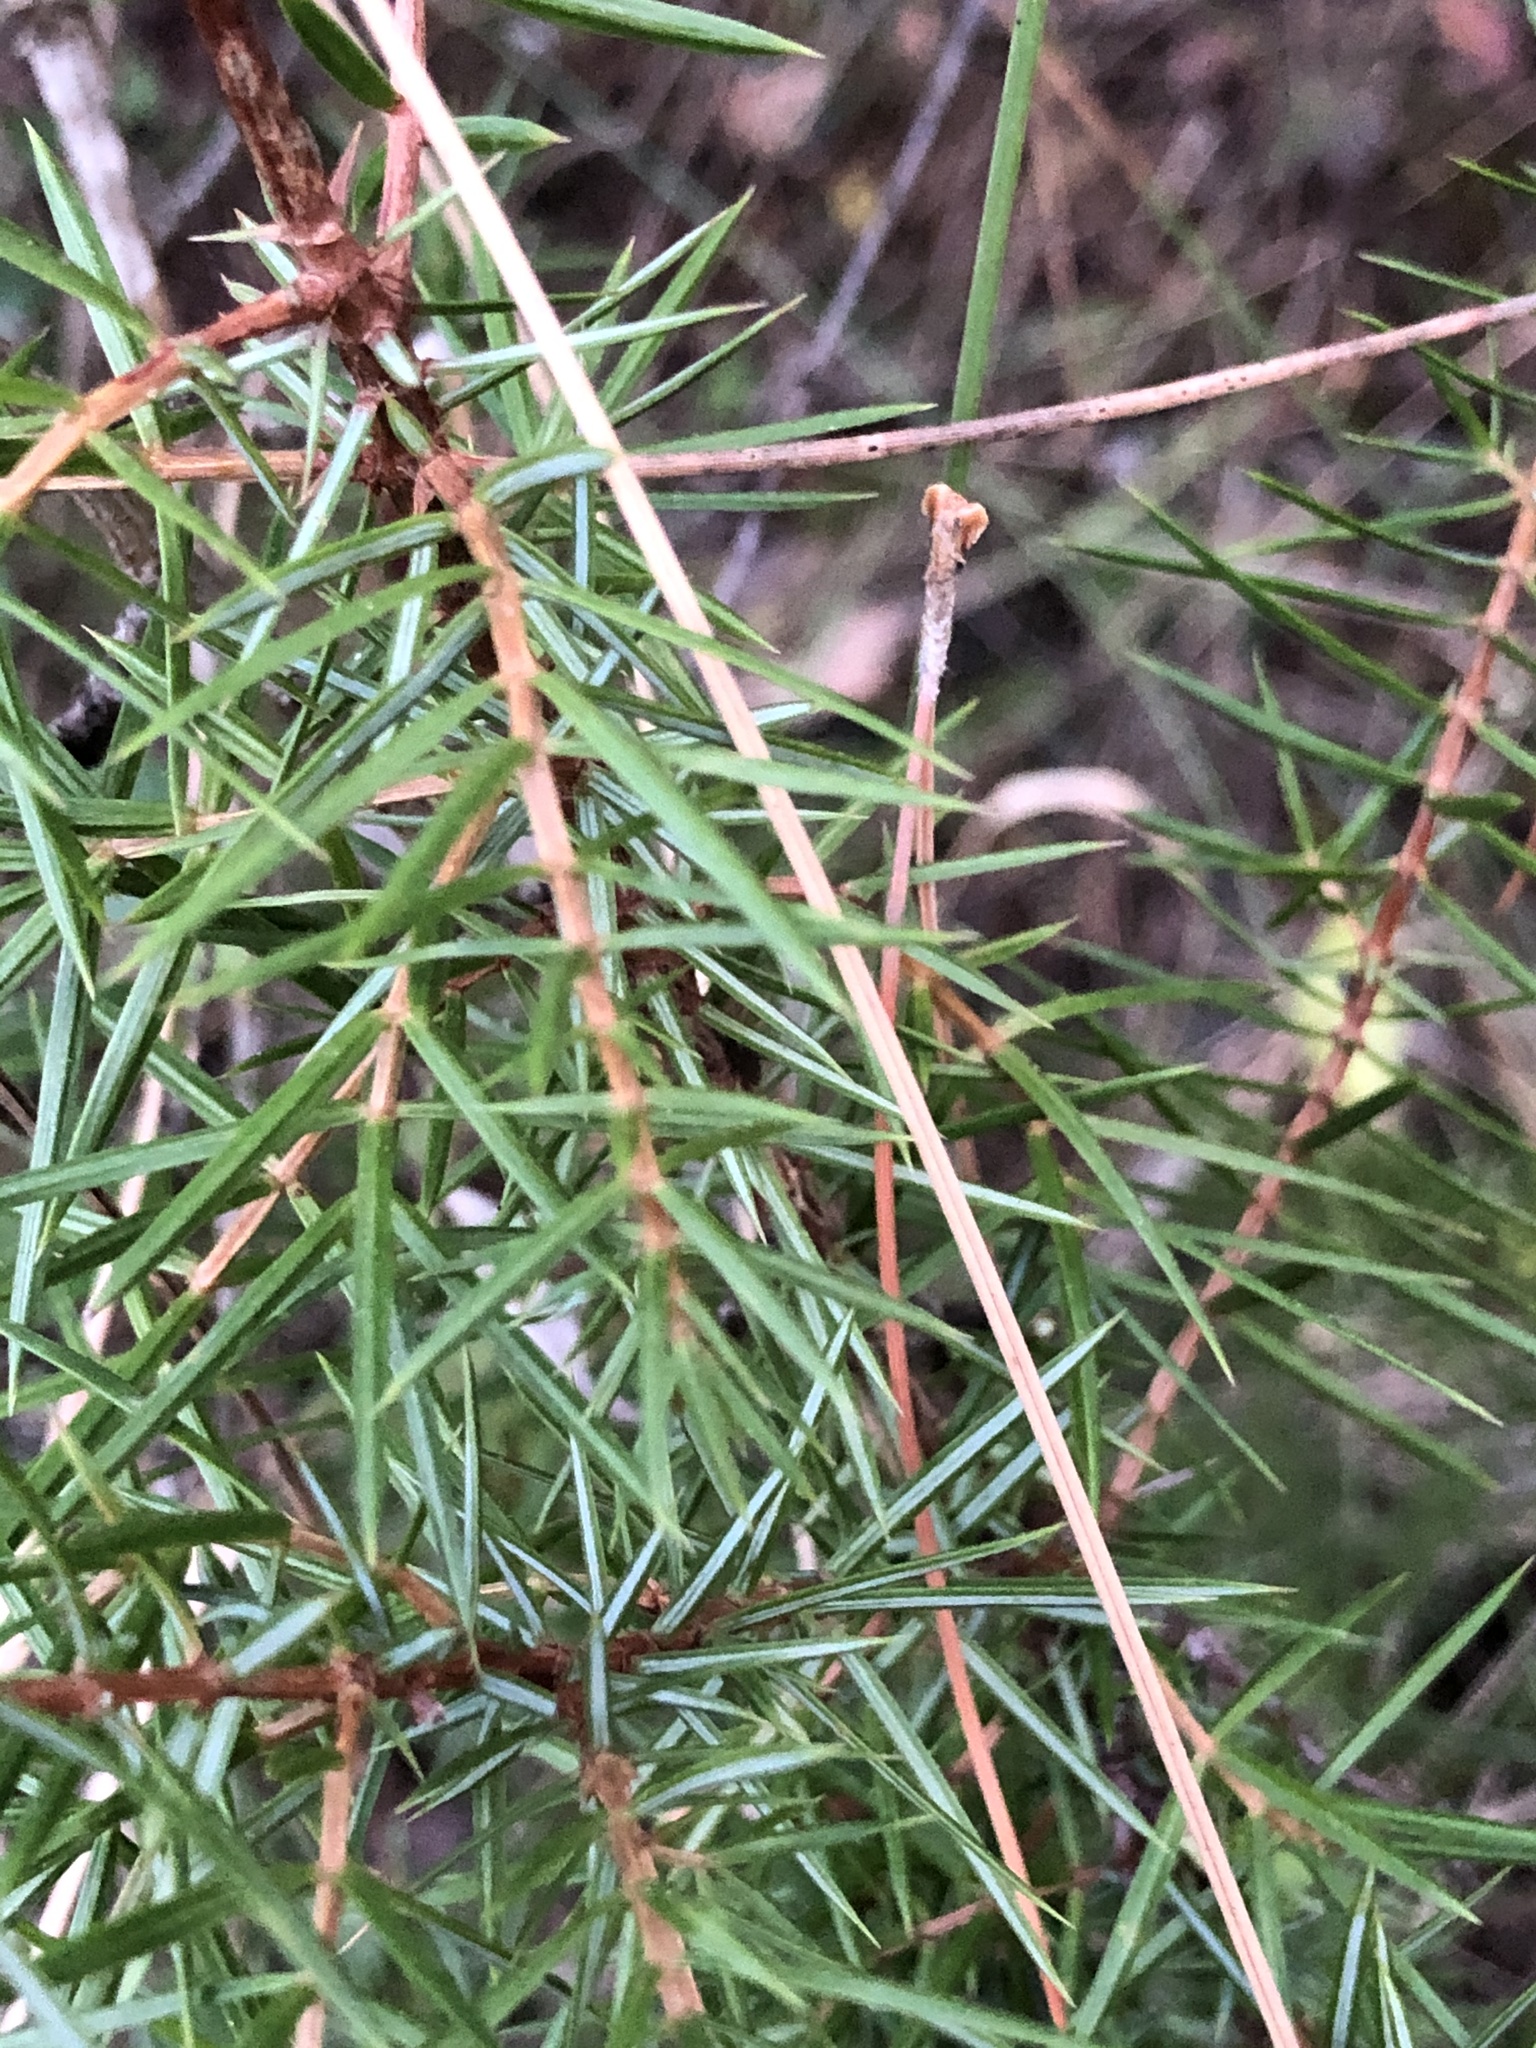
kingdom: Plantae
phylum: Tracheophyta
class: Pinopsida
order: Pinales
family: Cupressaceae
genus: Juniperus
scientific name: Juniperus communis
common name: Common juniper
